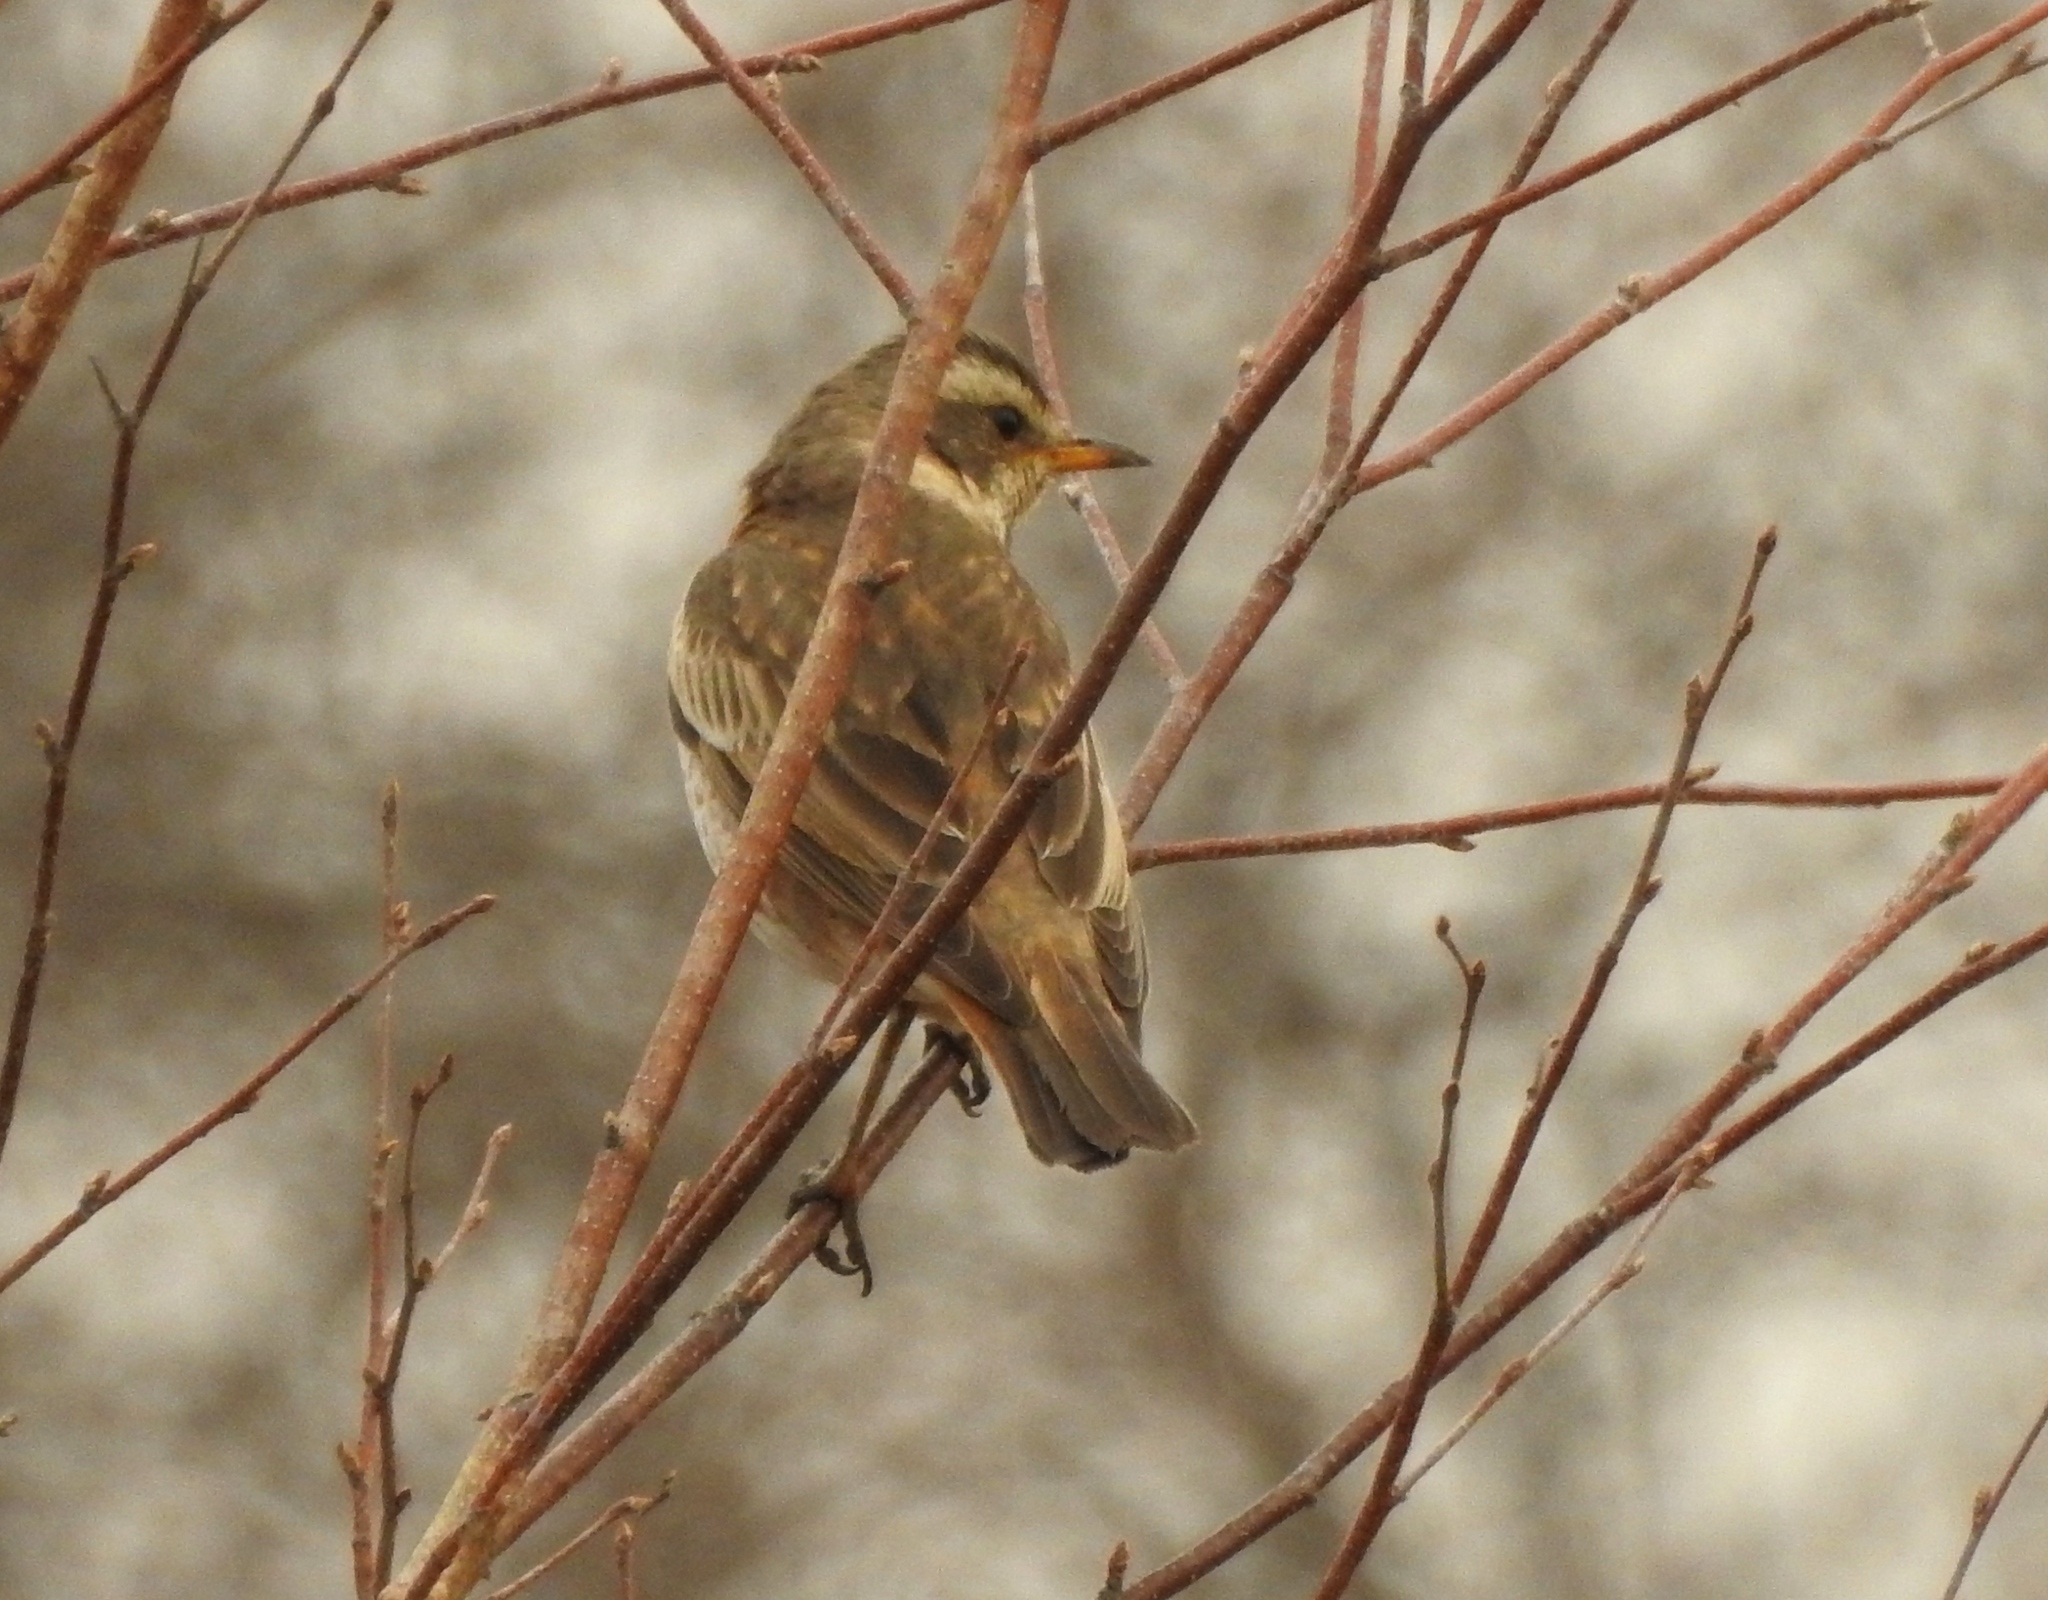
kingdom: Animalia
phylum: Chordata
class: Aves
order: Passeriformes
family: Turdidae
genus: Turdus
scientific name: Turdus naumanni
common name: Naumann's thrush
